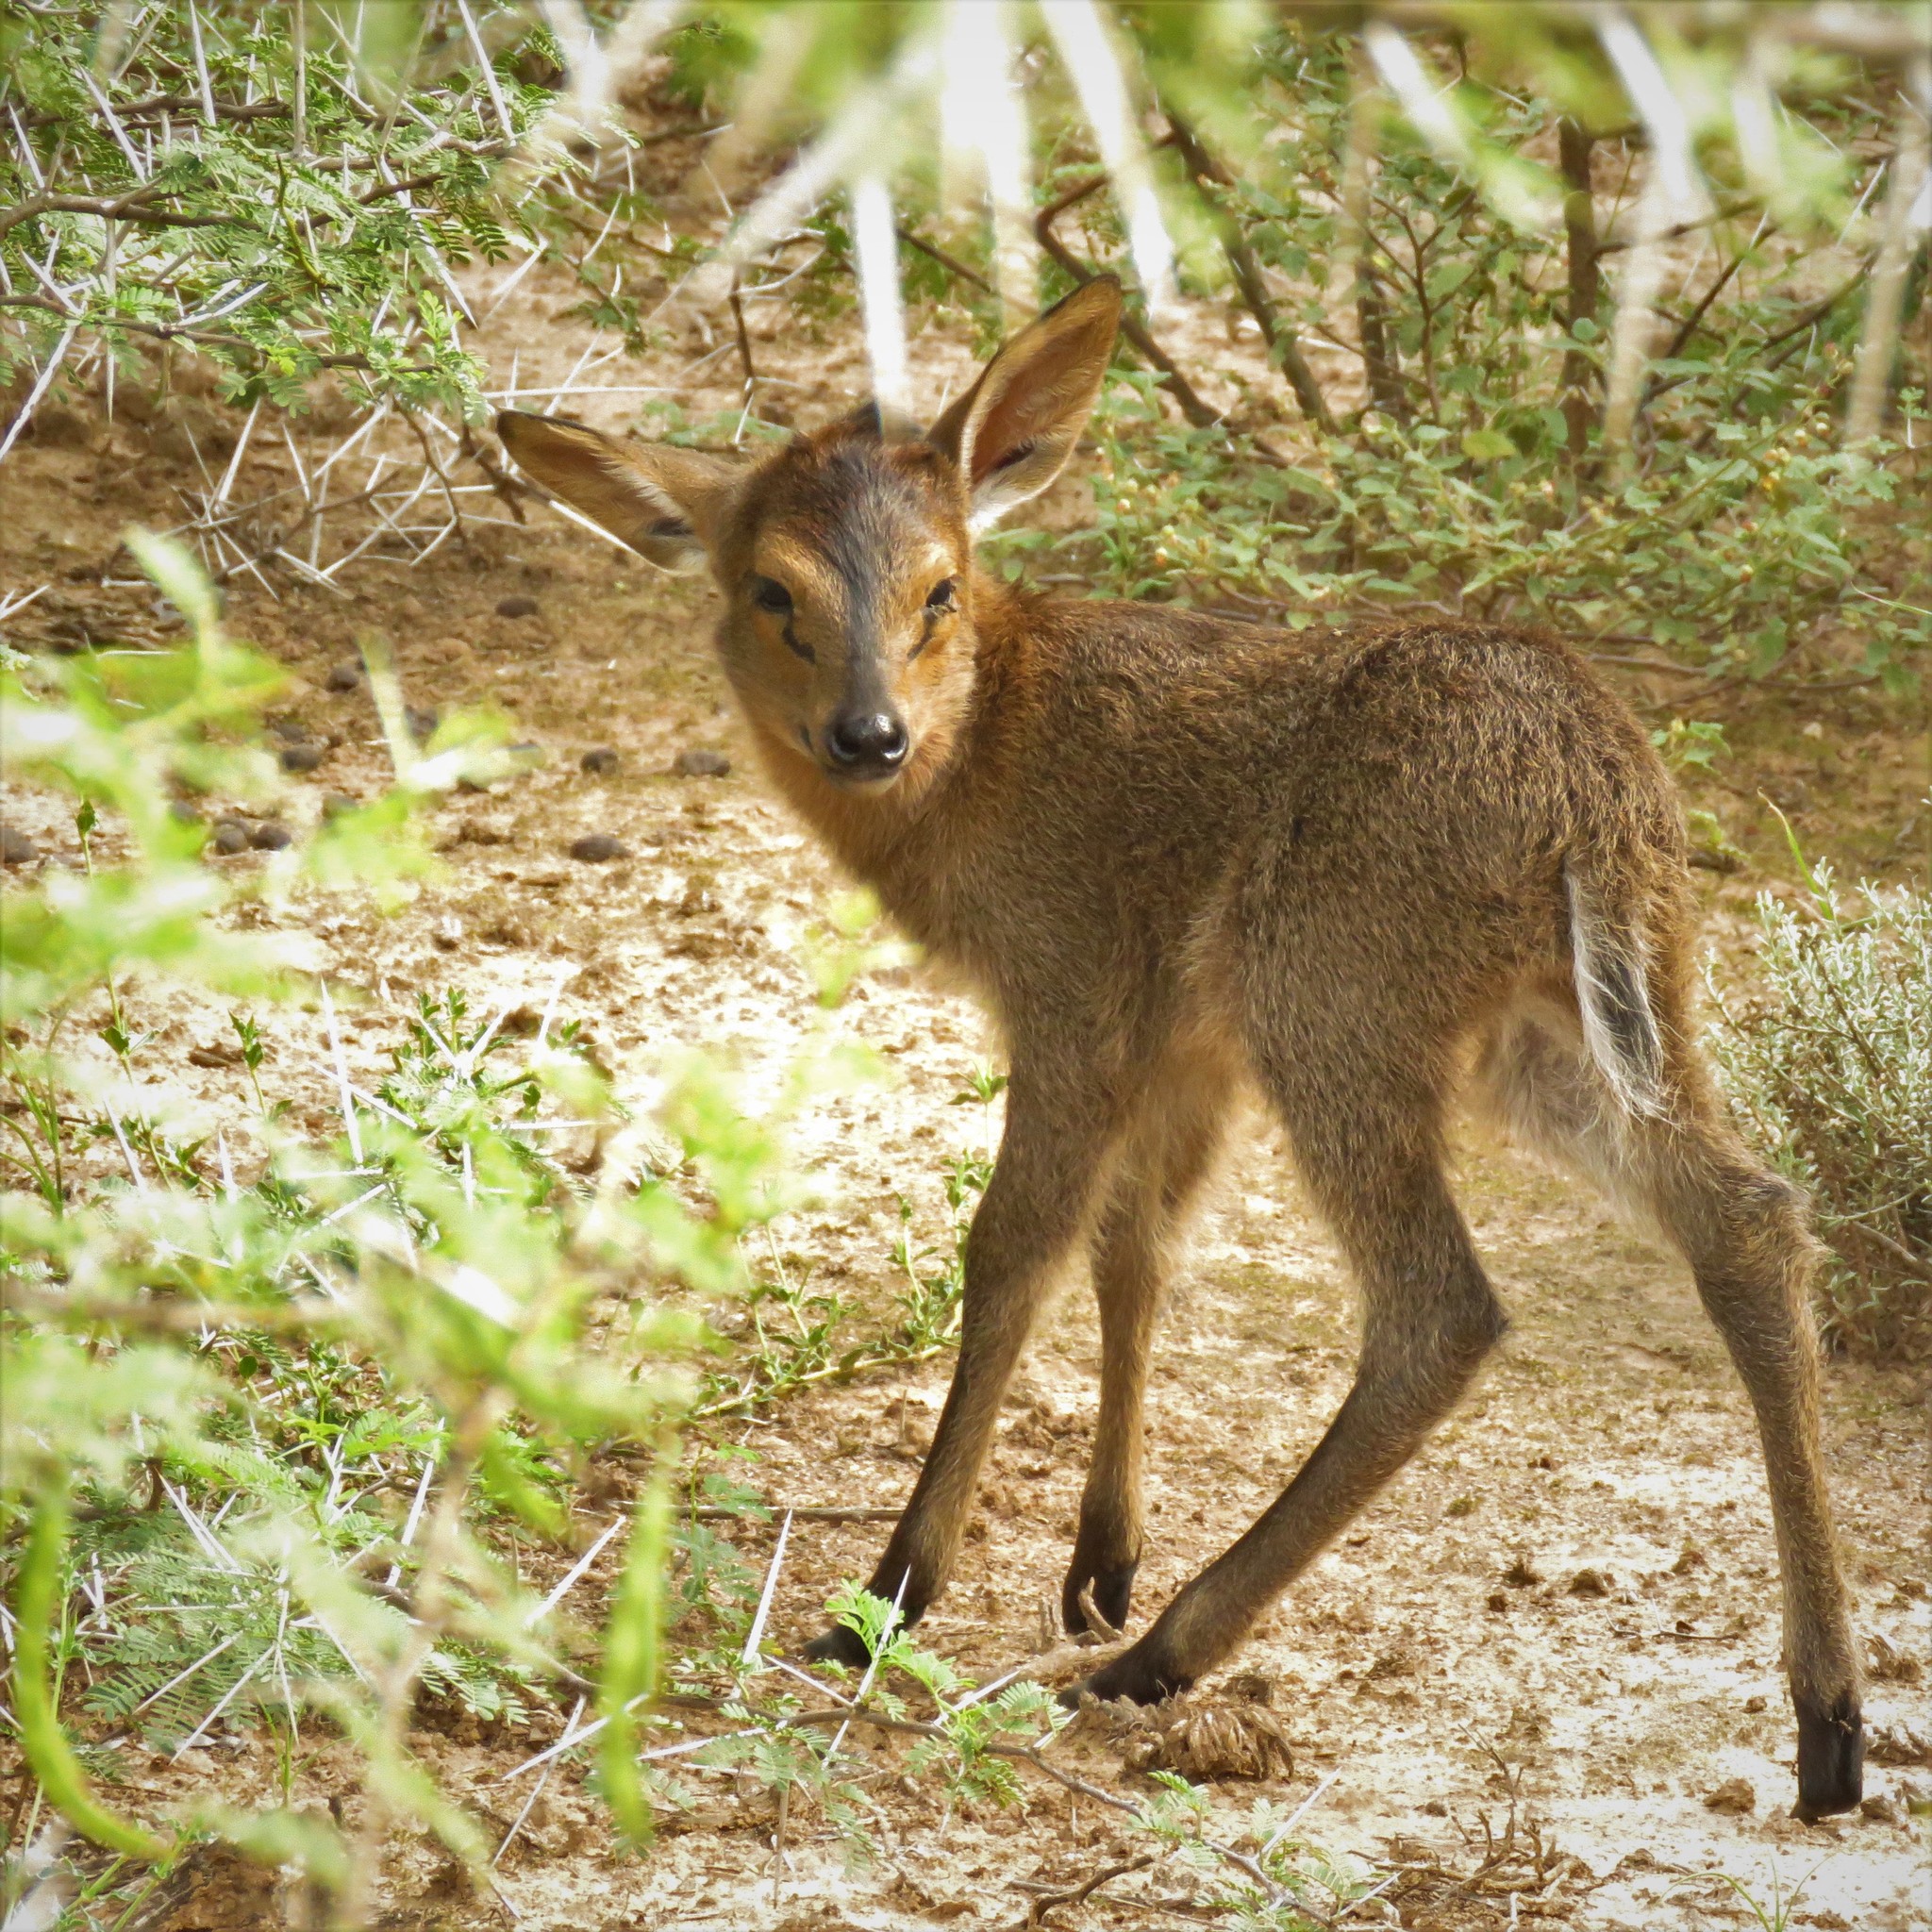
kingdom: Animalia
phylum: Chordata
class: Mammalia
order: Artiodactyla
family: Bovidae
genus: Sylvicapra
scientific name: Sylvicapra grimmia
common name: Bush duiker
